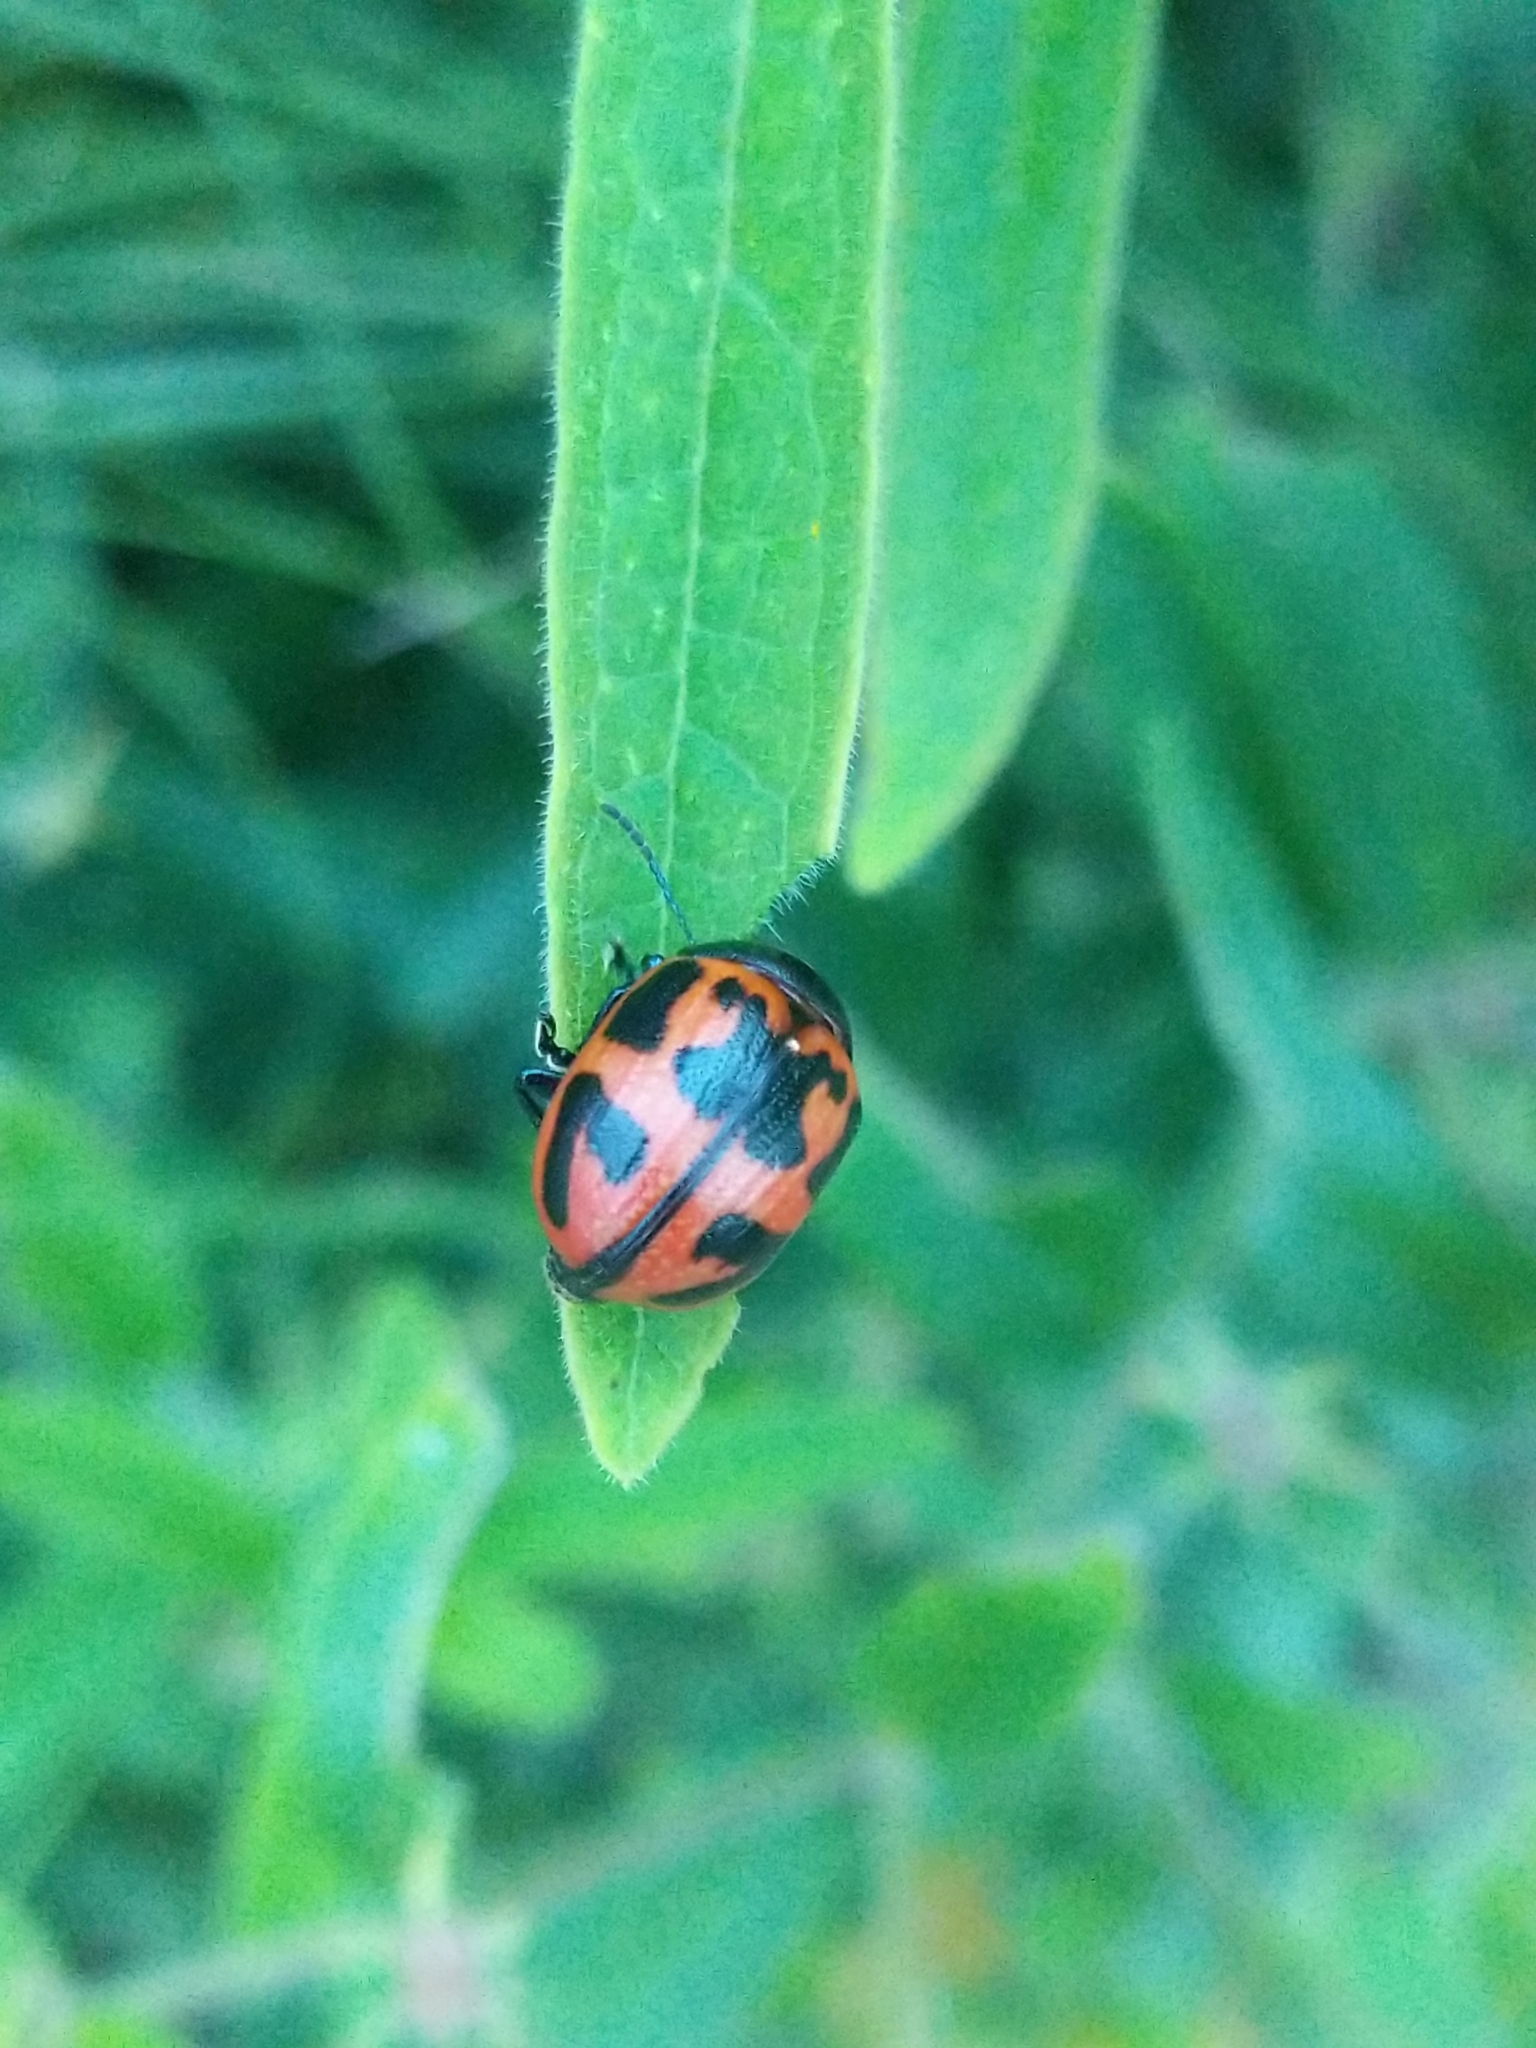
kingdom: Animalia
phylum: Arthropoda
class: Insecta
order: Coleoptera
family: Chrysomelidae
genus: Labidomera
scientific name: Labidomera clivicollis
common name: Swamp milkweed leaf beetle
